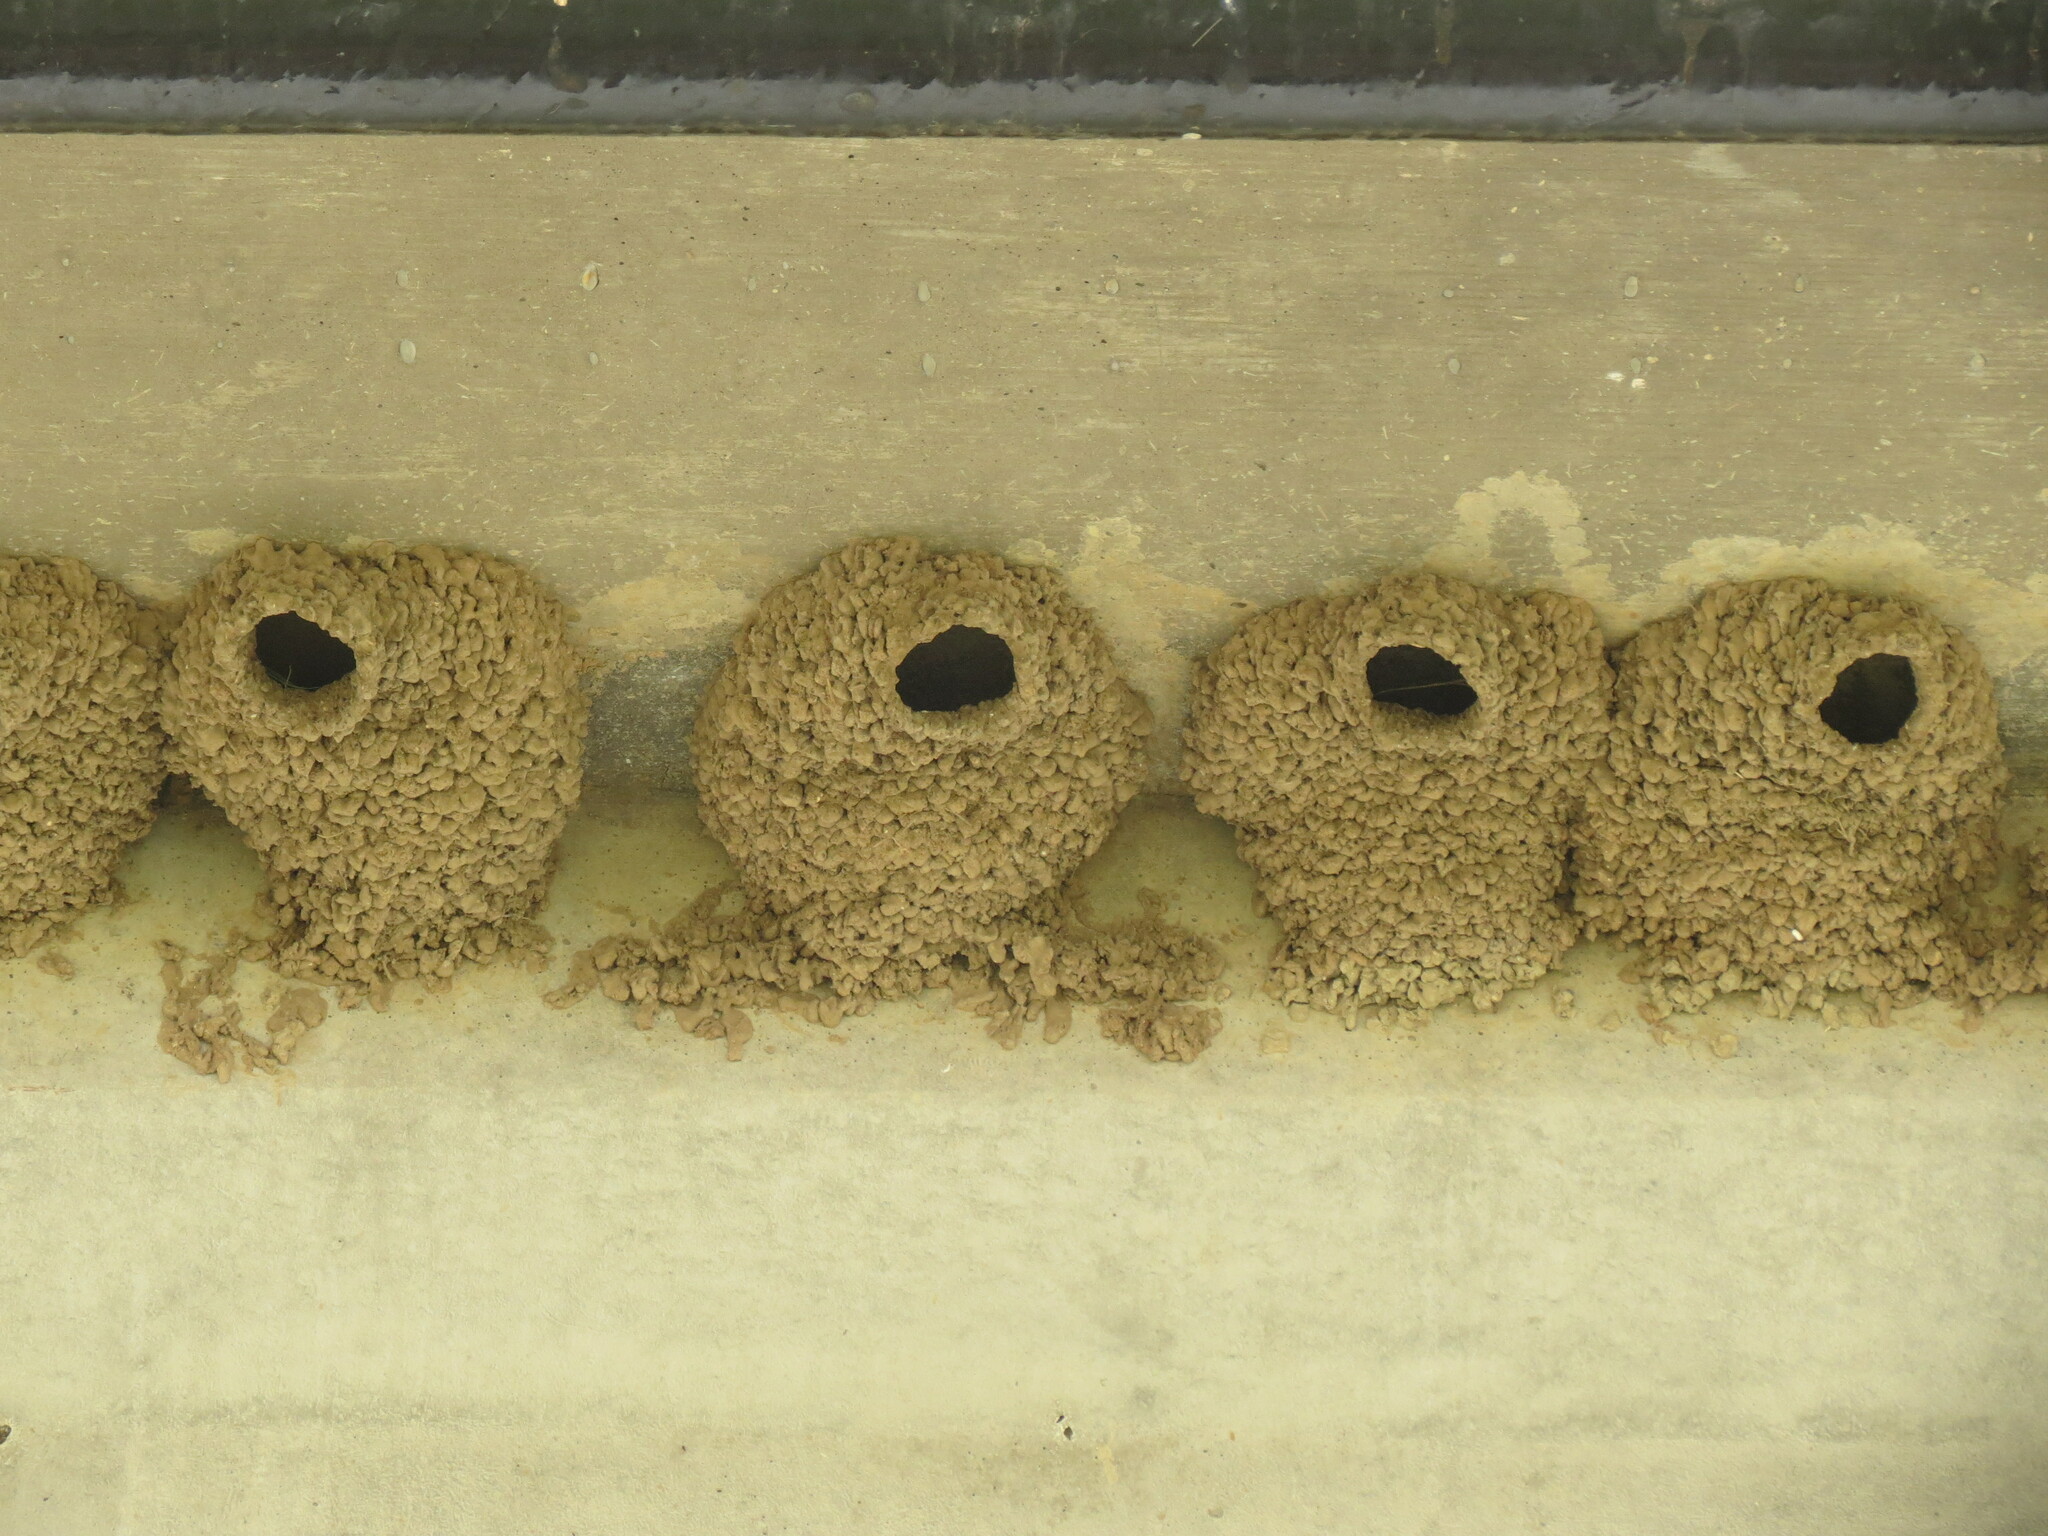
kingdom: Animalia
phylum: Chordata
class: Aves
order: Passeriformes
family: Hirundinidae
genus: Petrochelidon
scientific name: Petrochelidon pyrrhonota
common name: American cliff swallow
